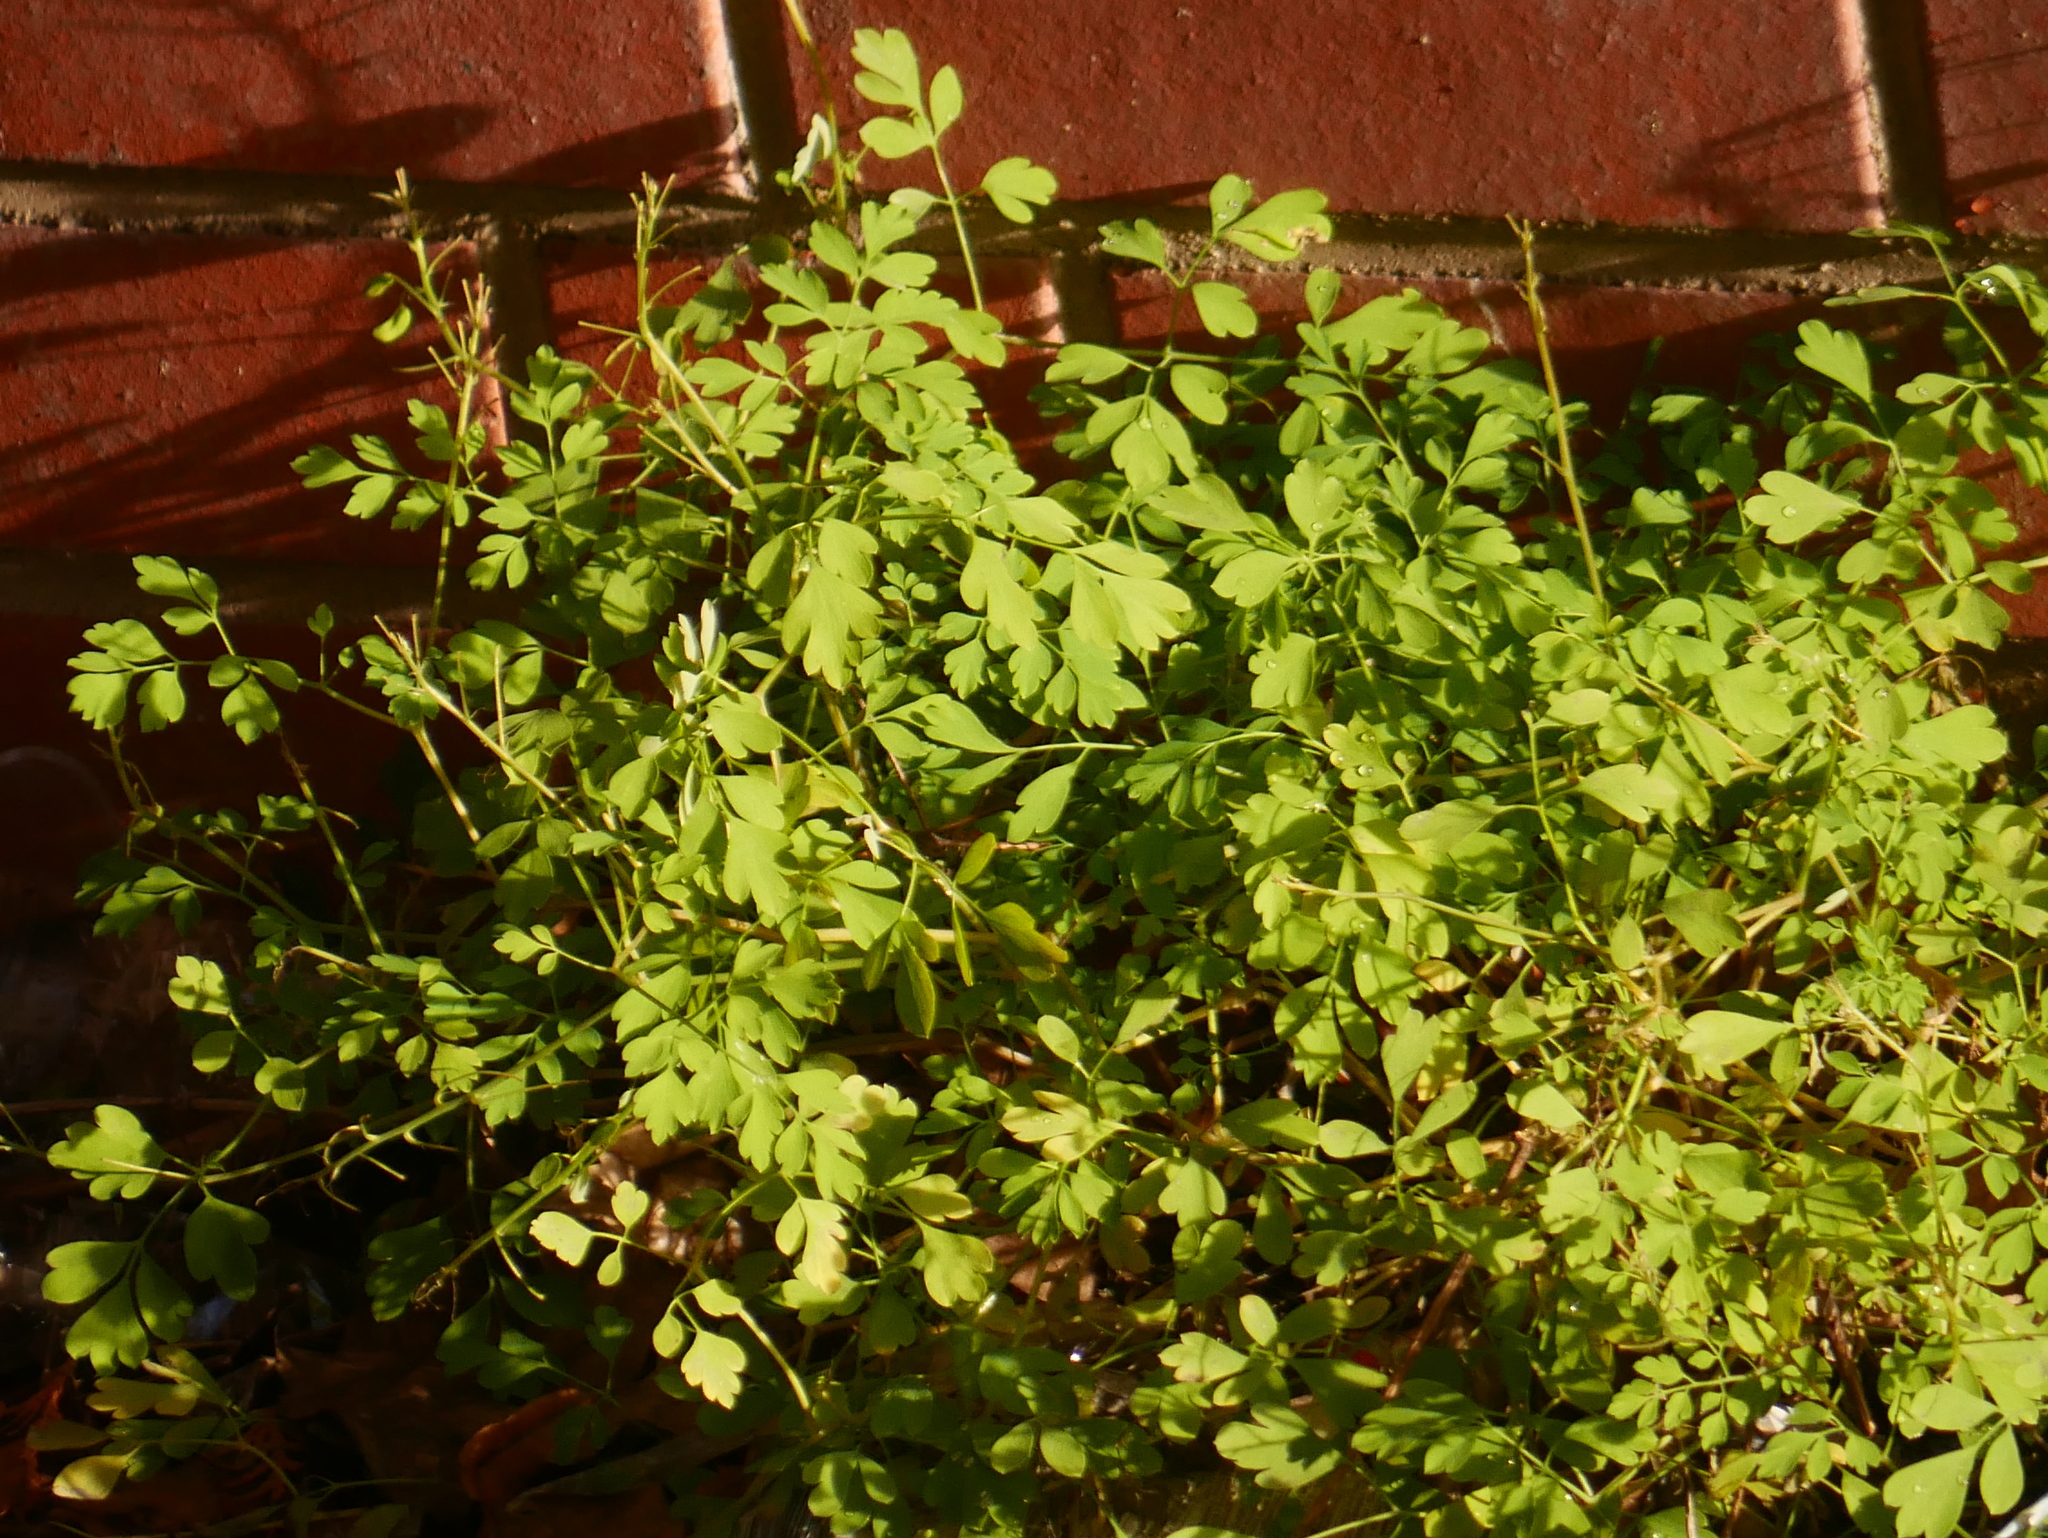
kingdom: Plantae
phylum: Tracheophyta
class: Magnoliopsida
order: Ranunculales
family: Papaveraceae
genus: Pseudofumaria
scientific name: Pseudofumaria lutea
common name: Yellow corydalis
